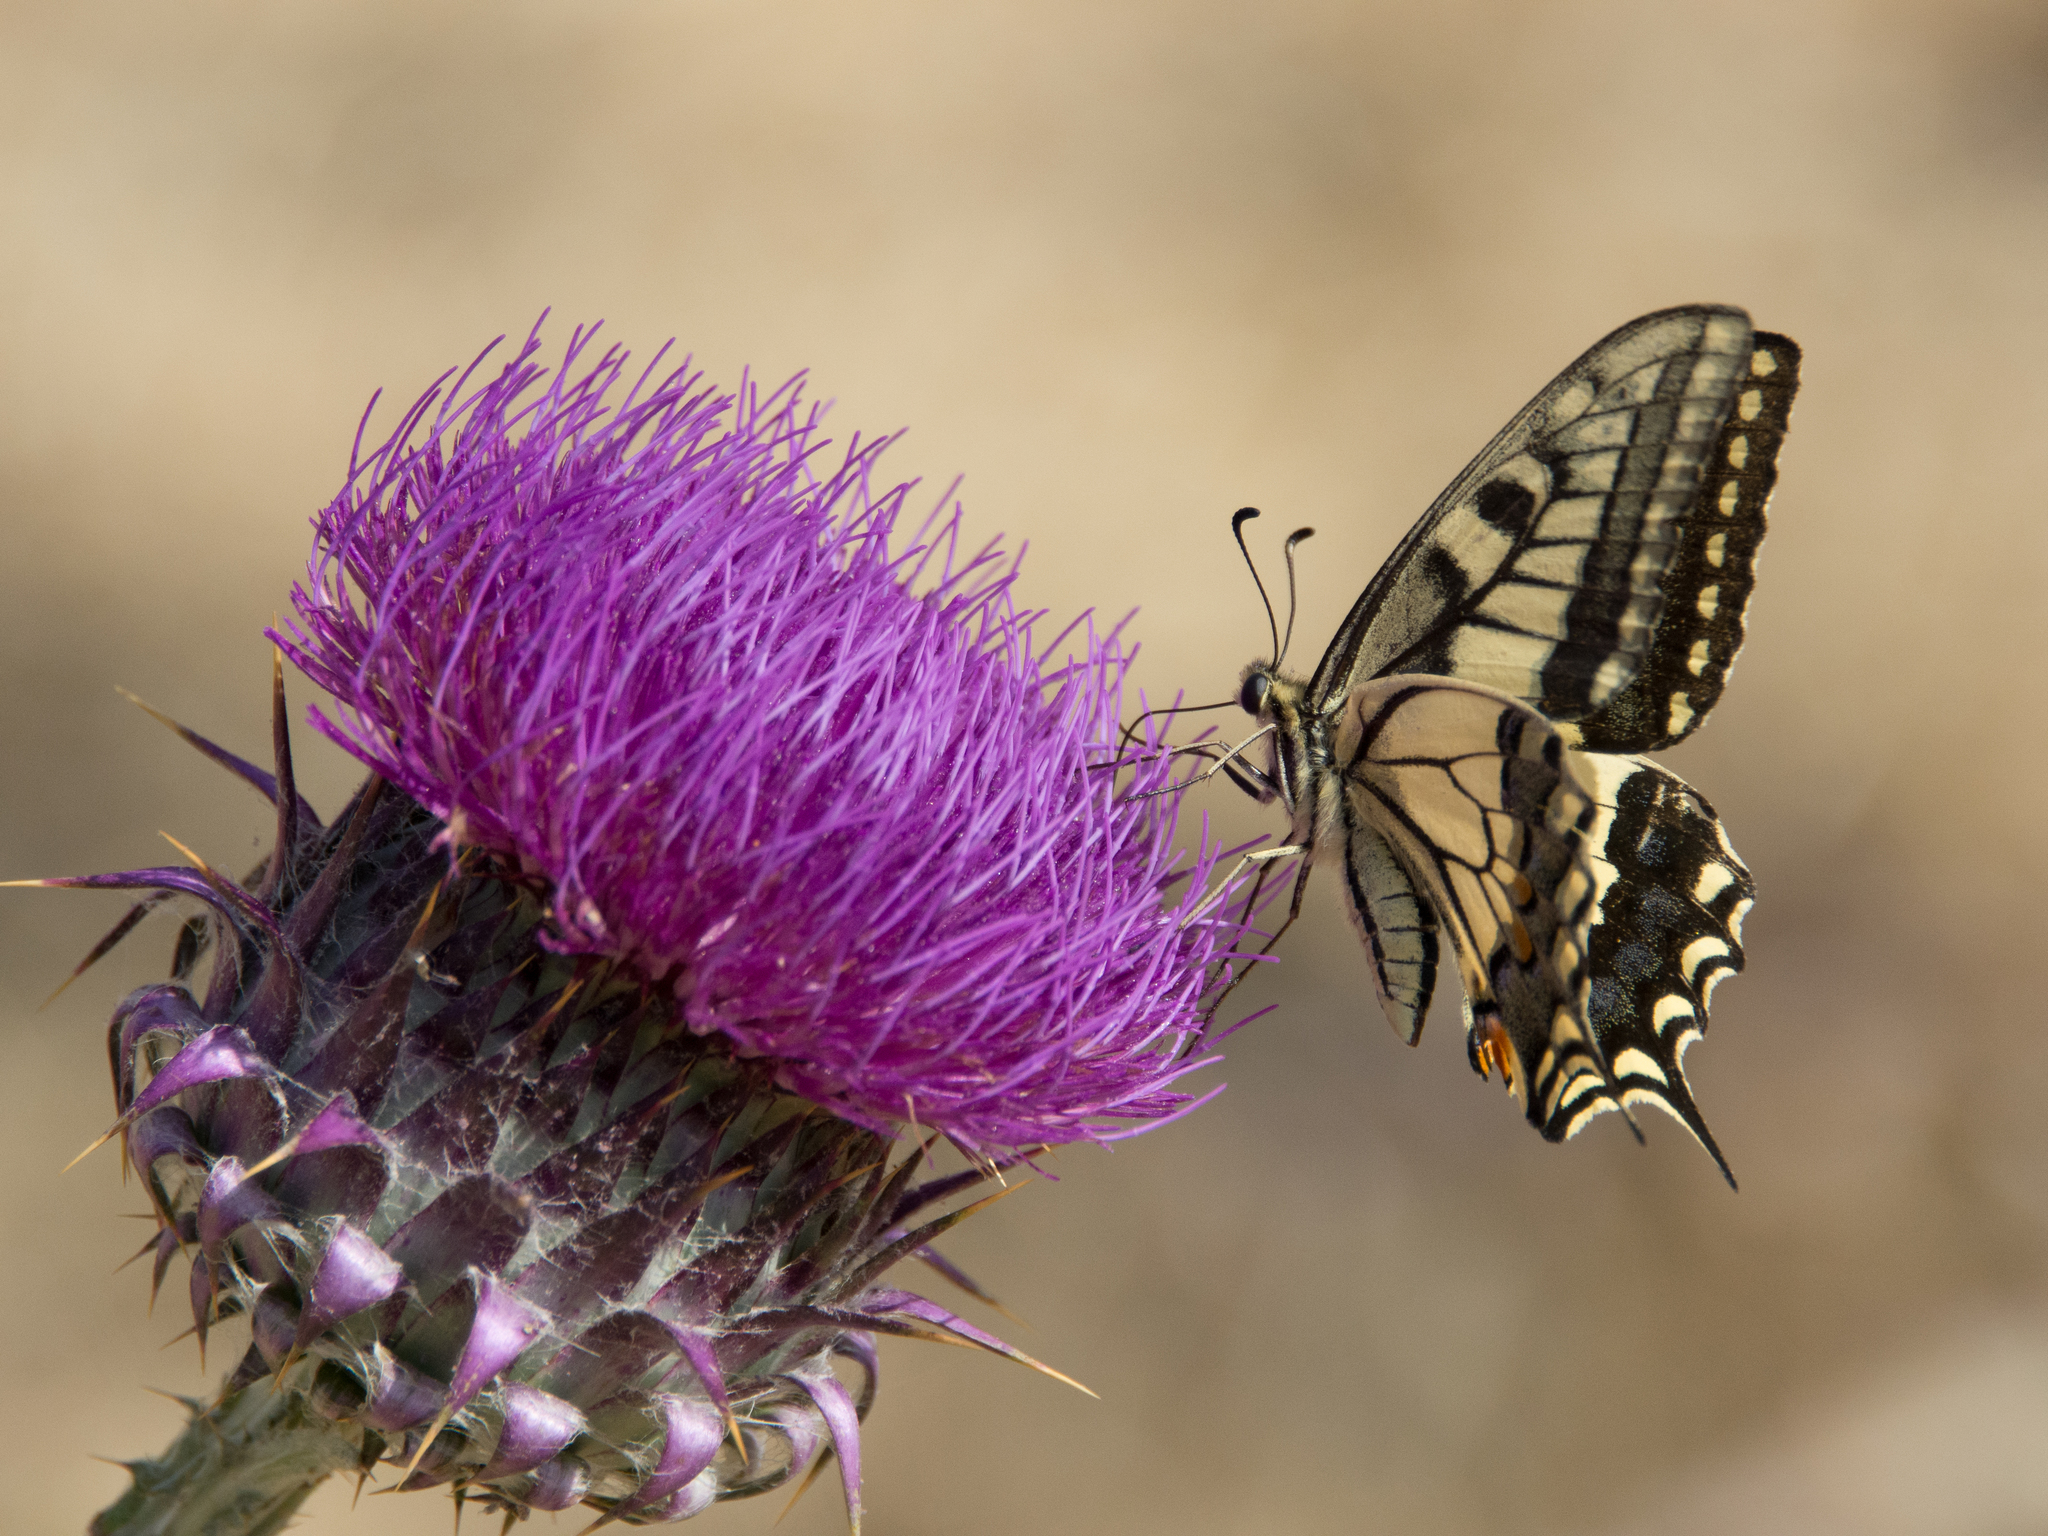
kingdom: Animalia
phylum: Arthropoda
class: Insecta
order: Lepidoptera
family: Papilionidae
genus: Papilio
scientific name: Papilio machaon
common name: Swallowtail
